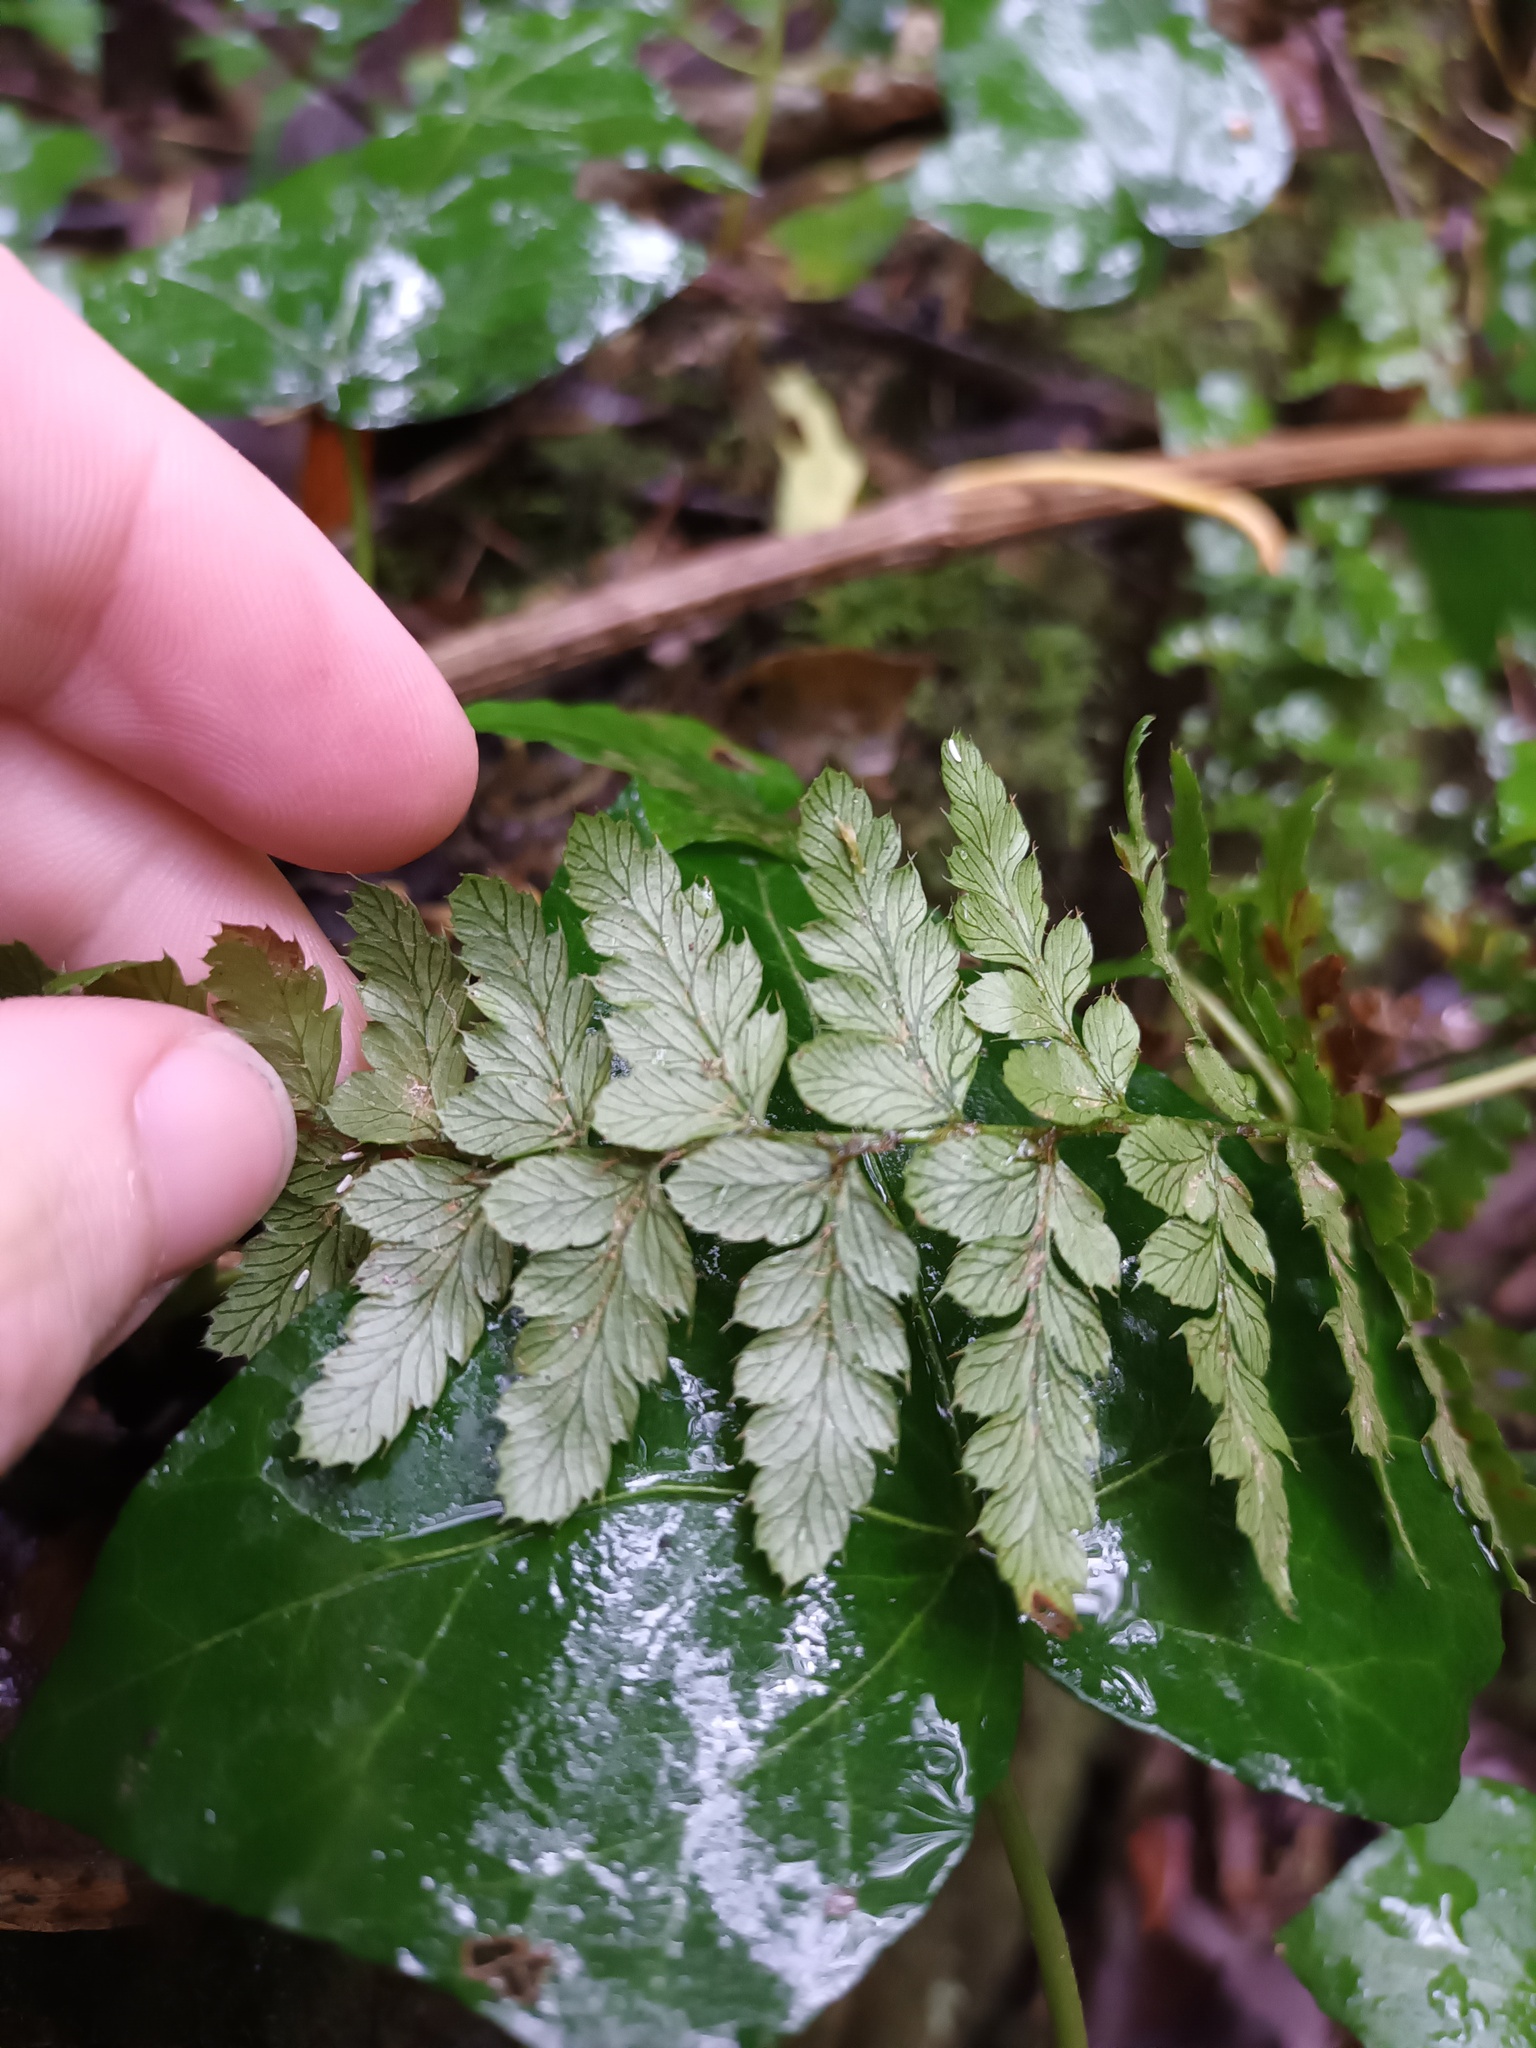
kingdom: Plantae
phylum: Tracheophyta
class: Polypodiopsida
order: Polypodiales
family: Dryopteridaceae
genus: Polystichum
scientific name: Polystichum setiferum
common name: Soft shield-fern
